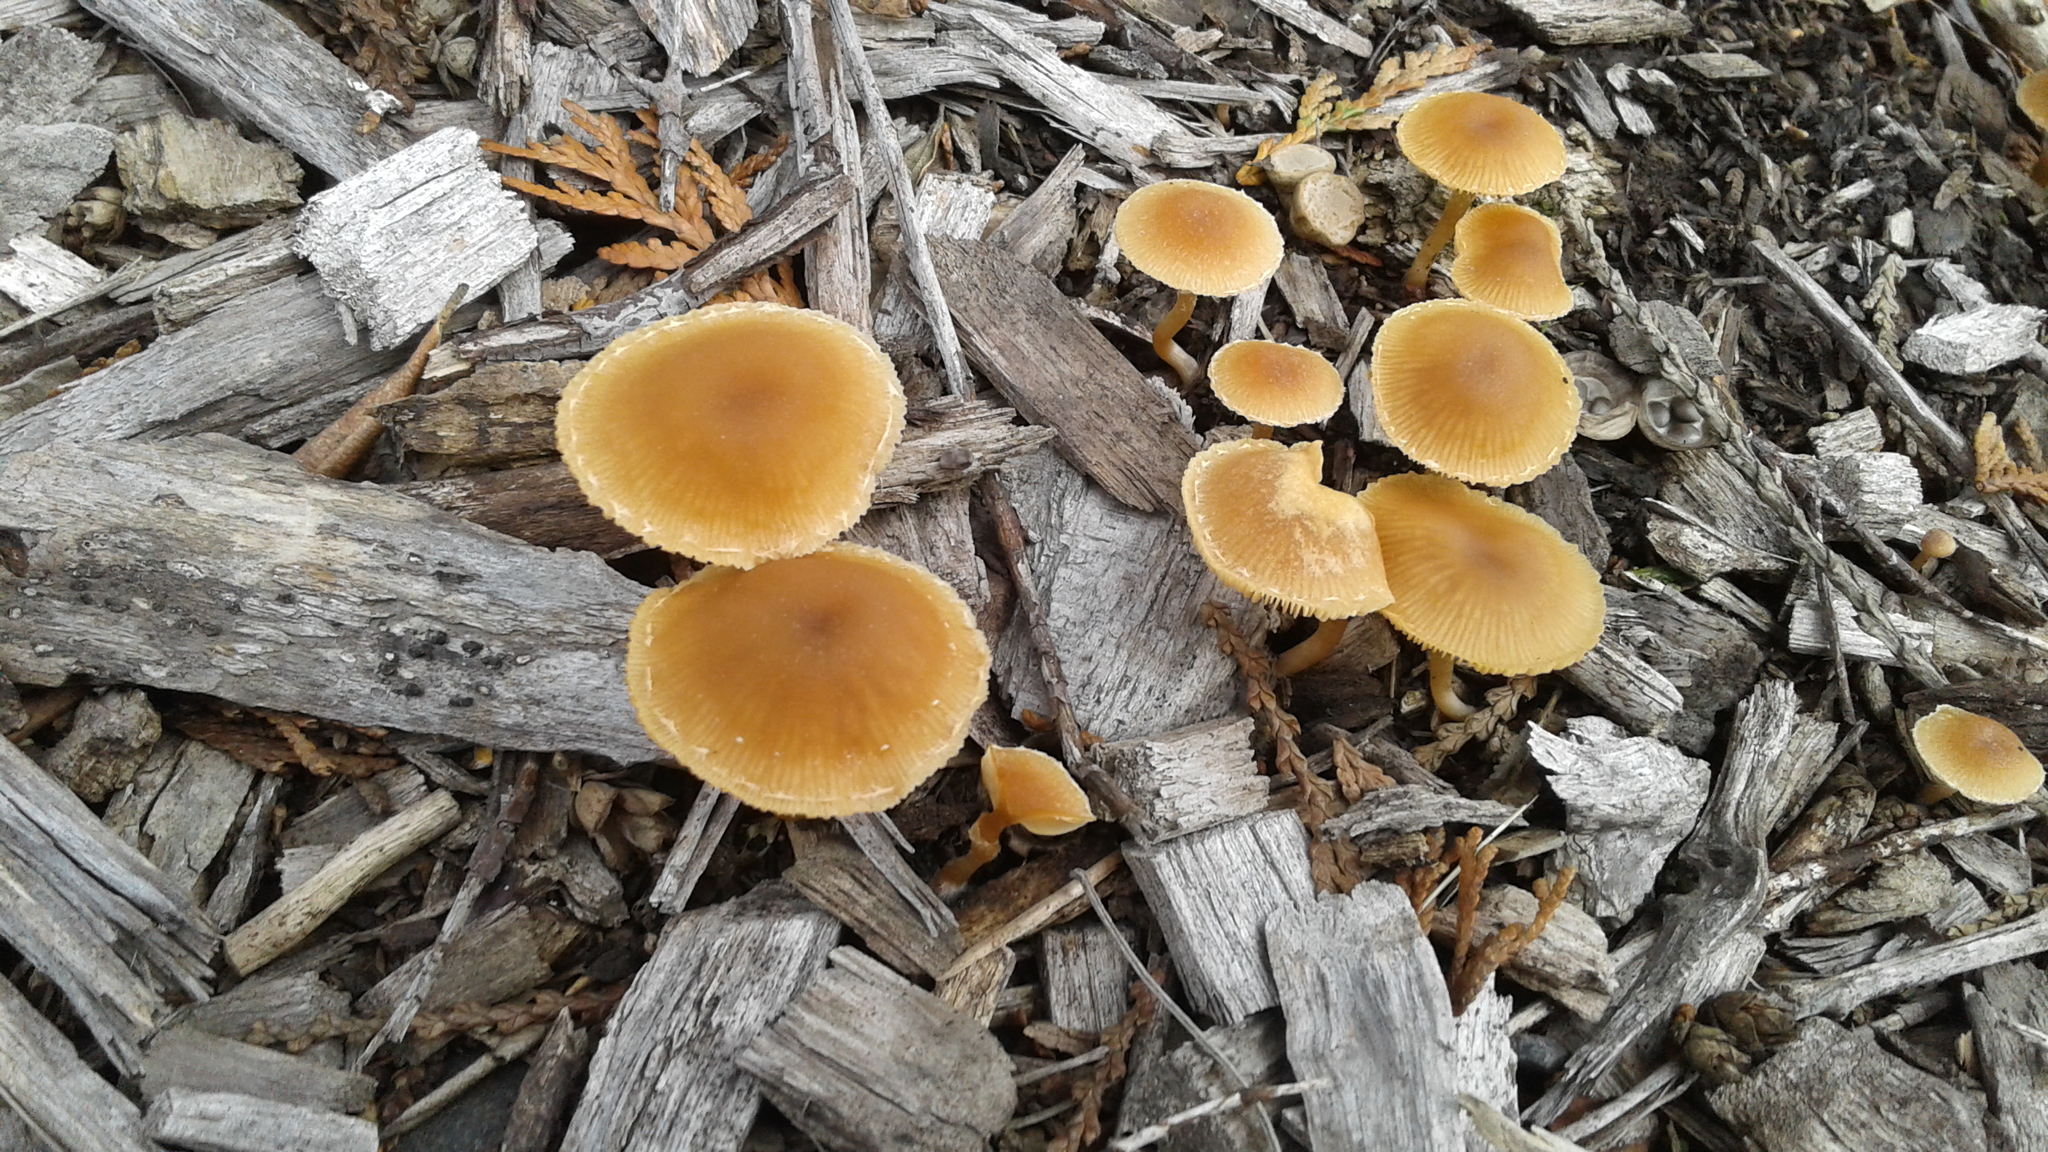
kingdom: Fungi
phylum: Basidiomycota
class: Agaricomycetes
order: Agaricales
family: Tubariaceae
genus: Tubaria
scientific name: Tubaria furfuracea
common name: Scurfy twiglet
